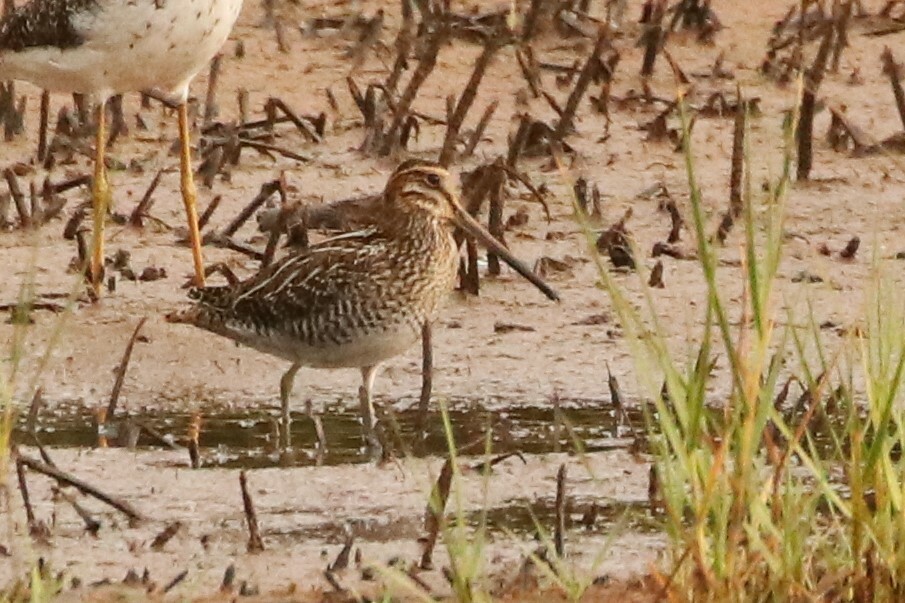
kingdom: Animalia
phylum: Chordata
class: Aves
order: Charadriiformes
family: Scolopacidae
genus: Gallinago
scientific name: Gallinago delicata
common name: Wilson's snipe
